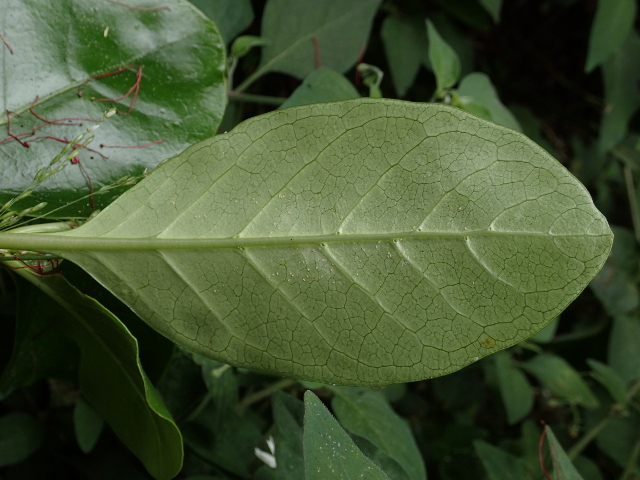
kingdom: Plantae
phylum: Tracheophyta
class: Magnoliopsida
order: Gentianales
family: Rubiaceae
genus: Coprosma
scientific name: Coprosma repens
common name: Tree bedstraw
